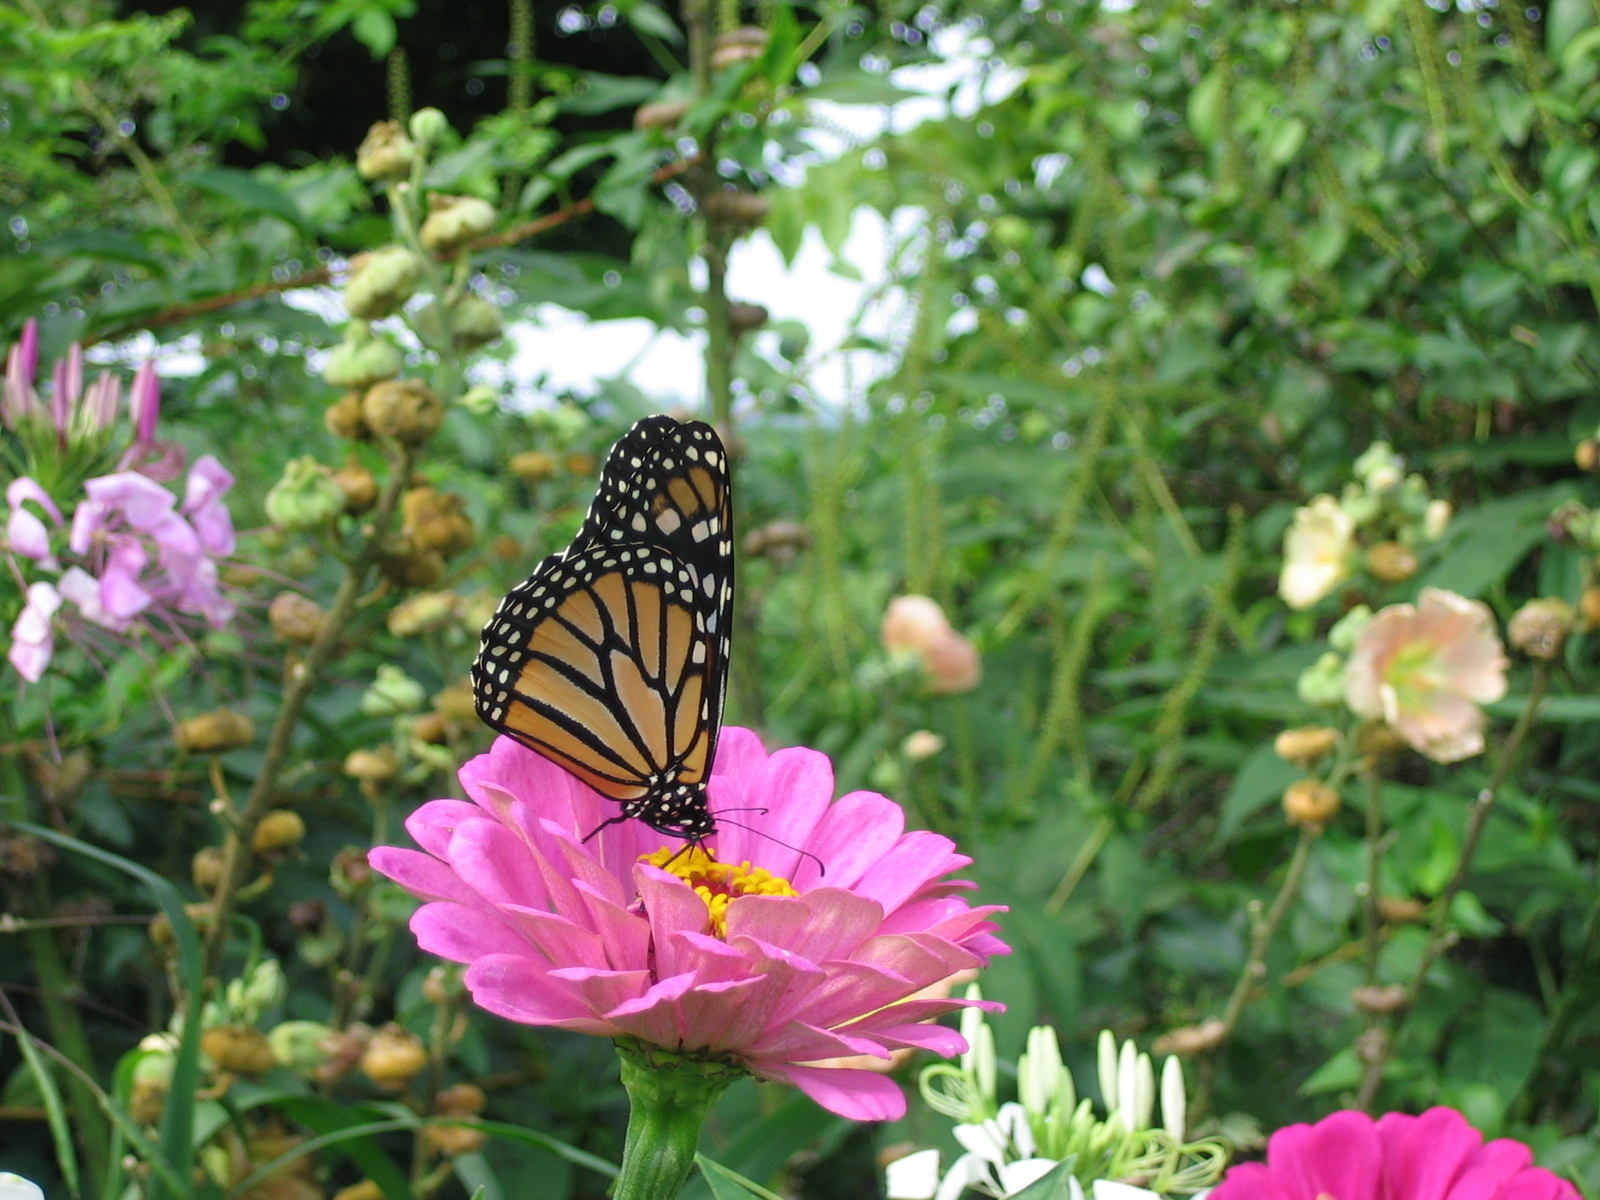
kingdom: Animalia
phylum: Arthropoda
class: Insecta
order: Lepidoptera
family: Nymphalidae
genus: Danaus
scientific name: Danaus plexippus
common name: Monarch
